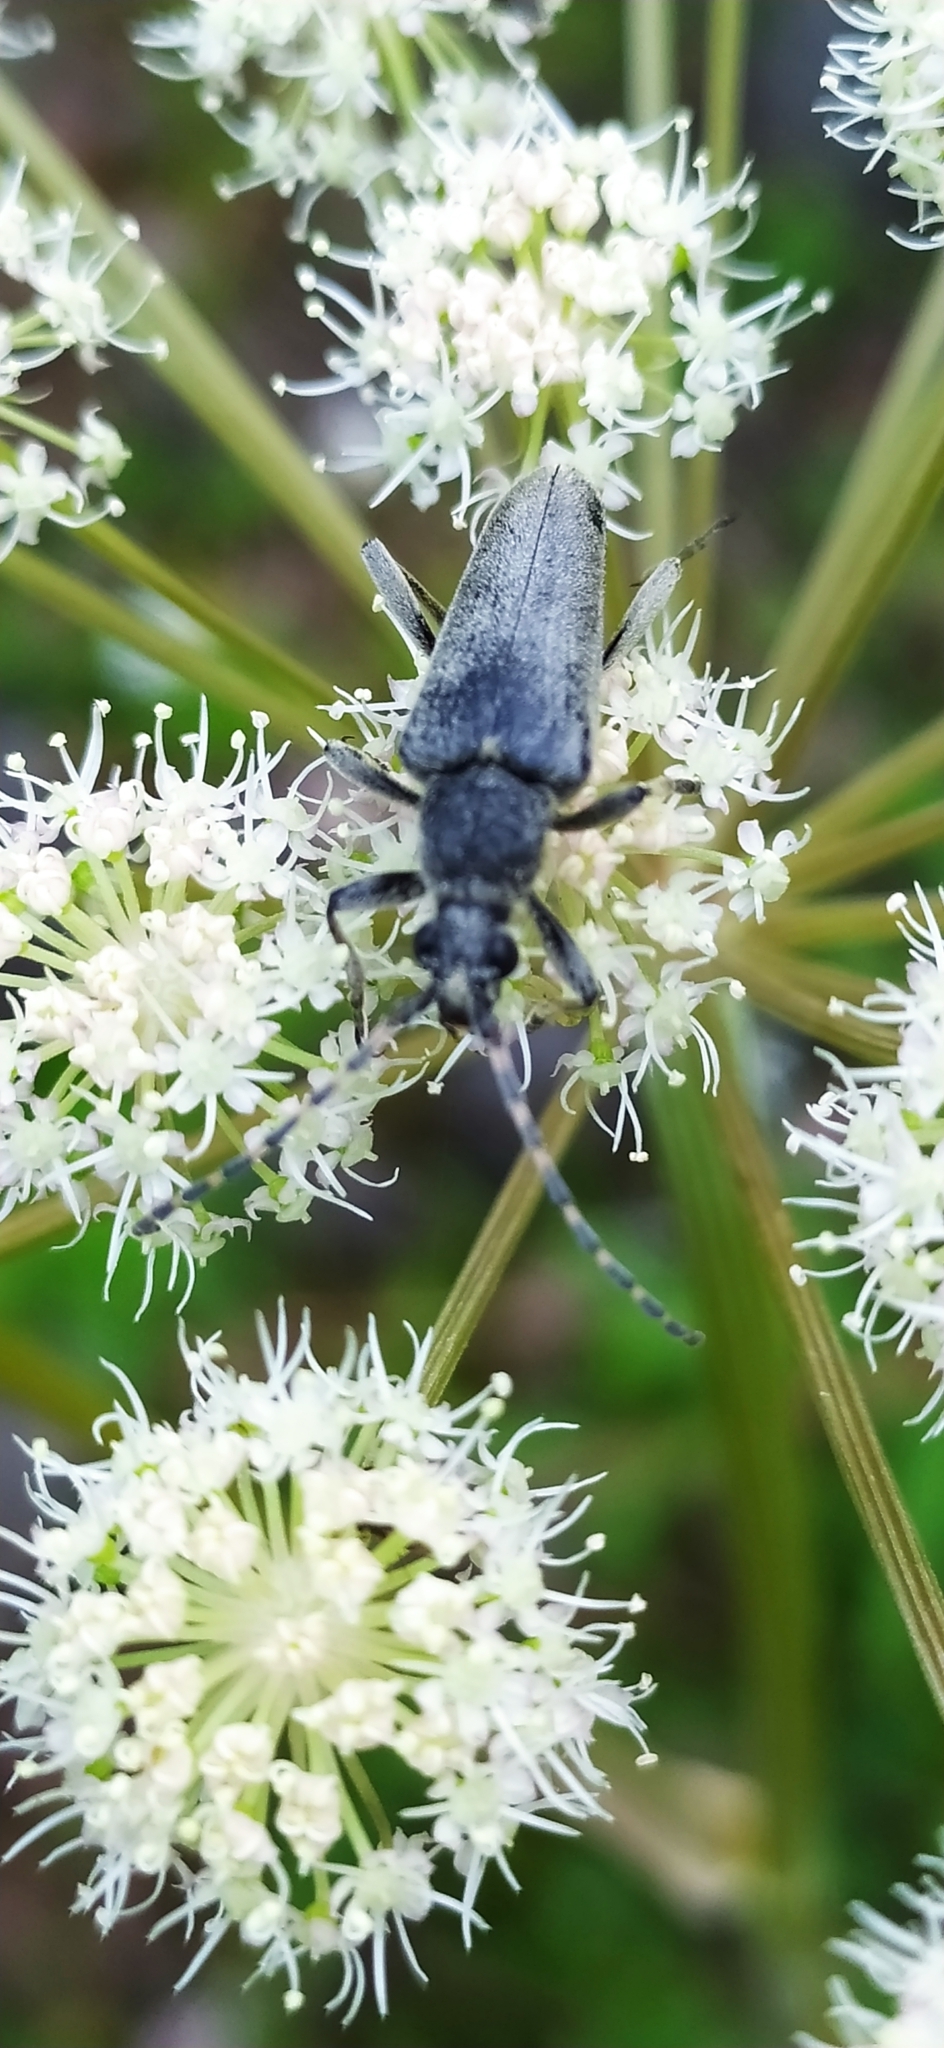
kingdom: Animalia
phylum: Arthropoda
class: Insecta
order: Coleoptera
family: Cerambycidae
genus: Lepturobosca
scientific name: Lepturobosca virens
